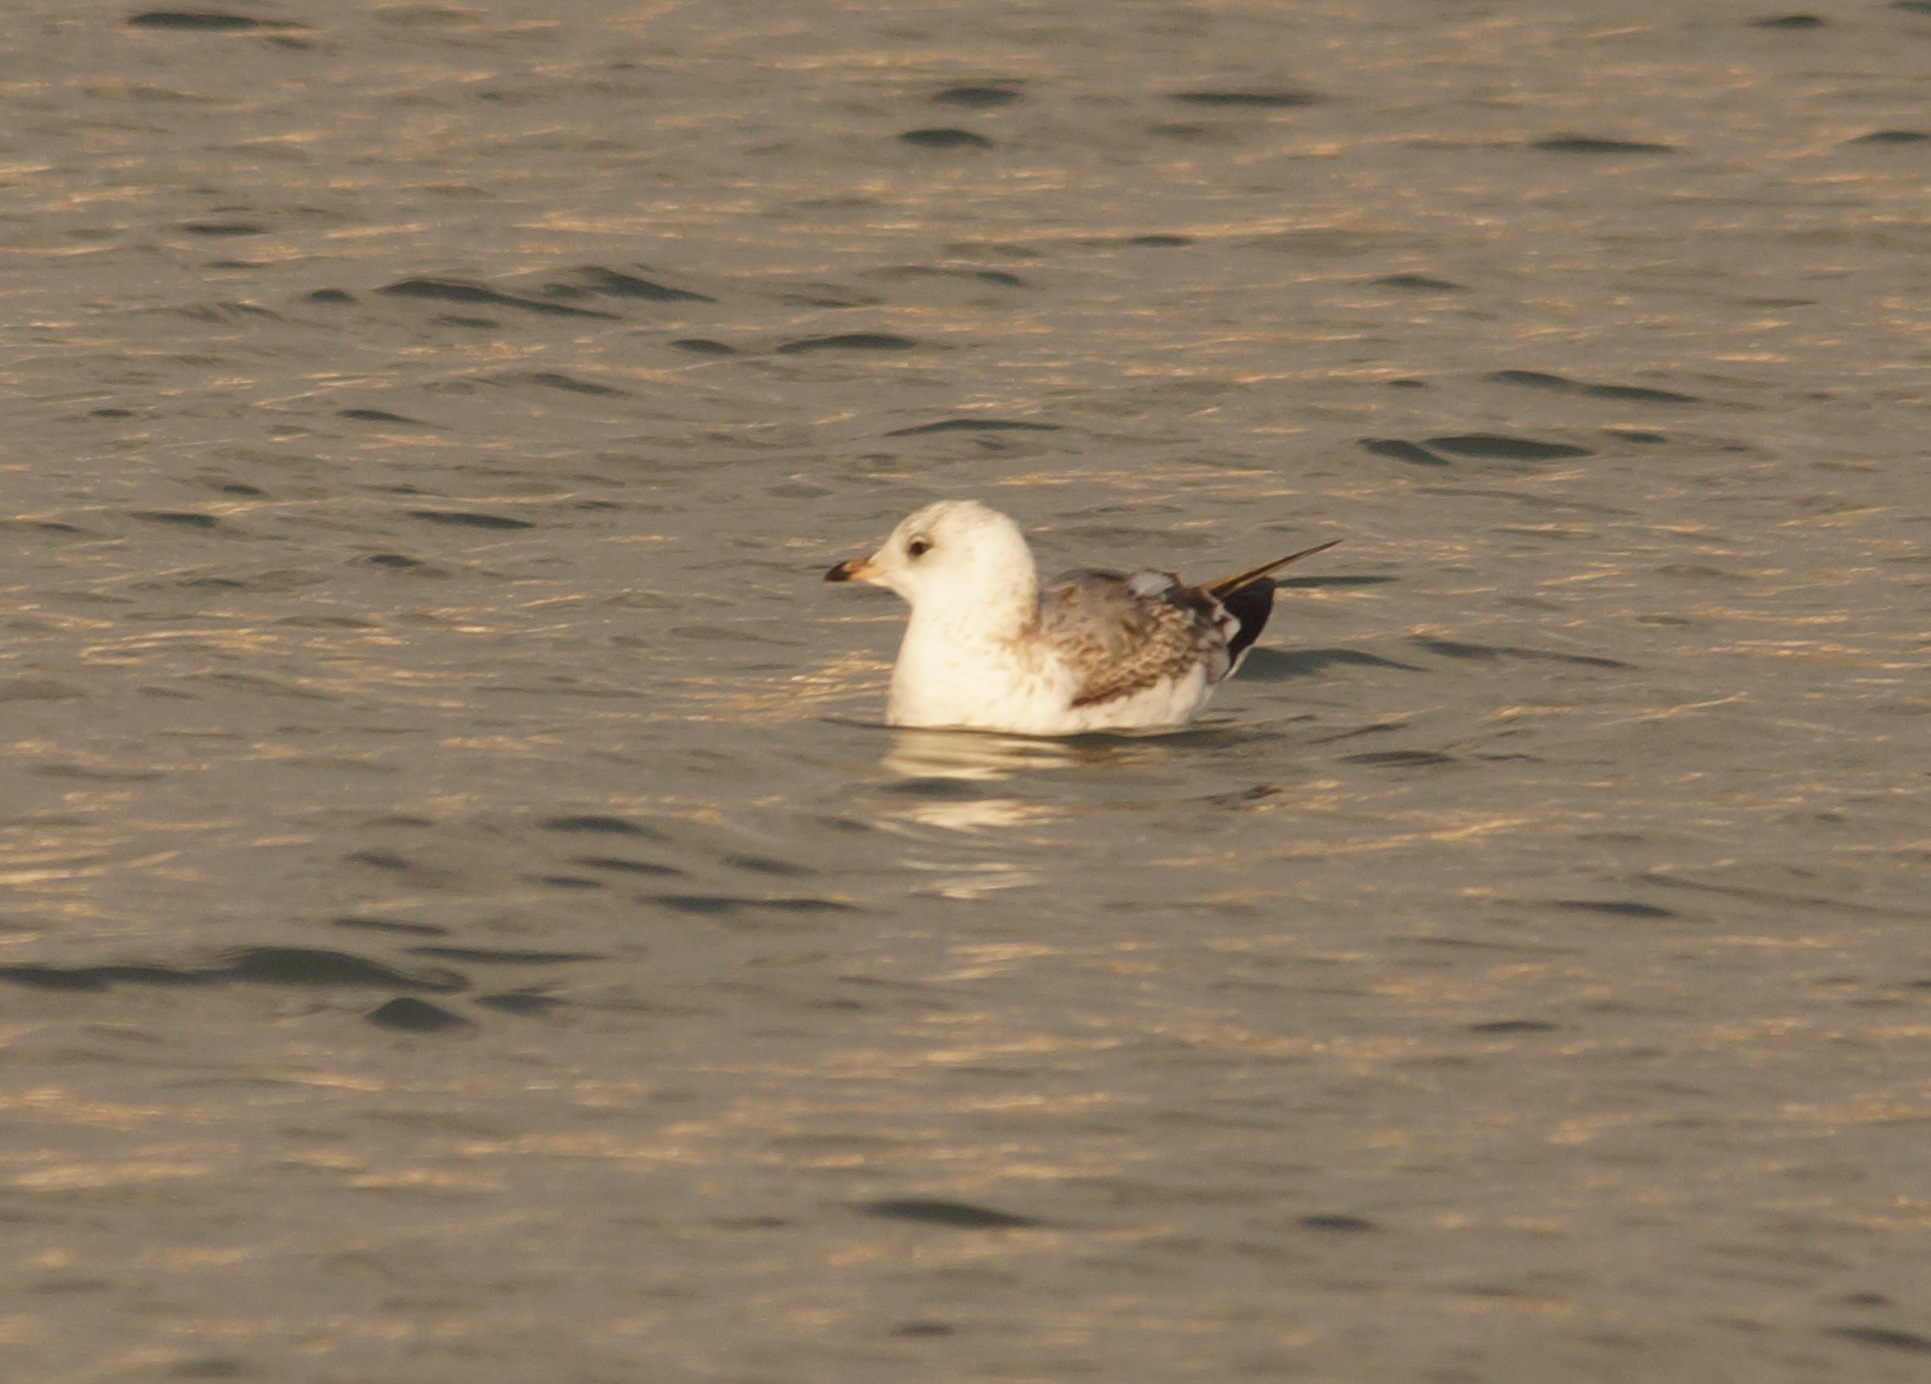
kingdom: Animalia
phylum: Chordata
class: Aves
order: Charadriiformes
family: Laridae
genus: Larus
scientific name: Larus canus
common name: Mew gull
